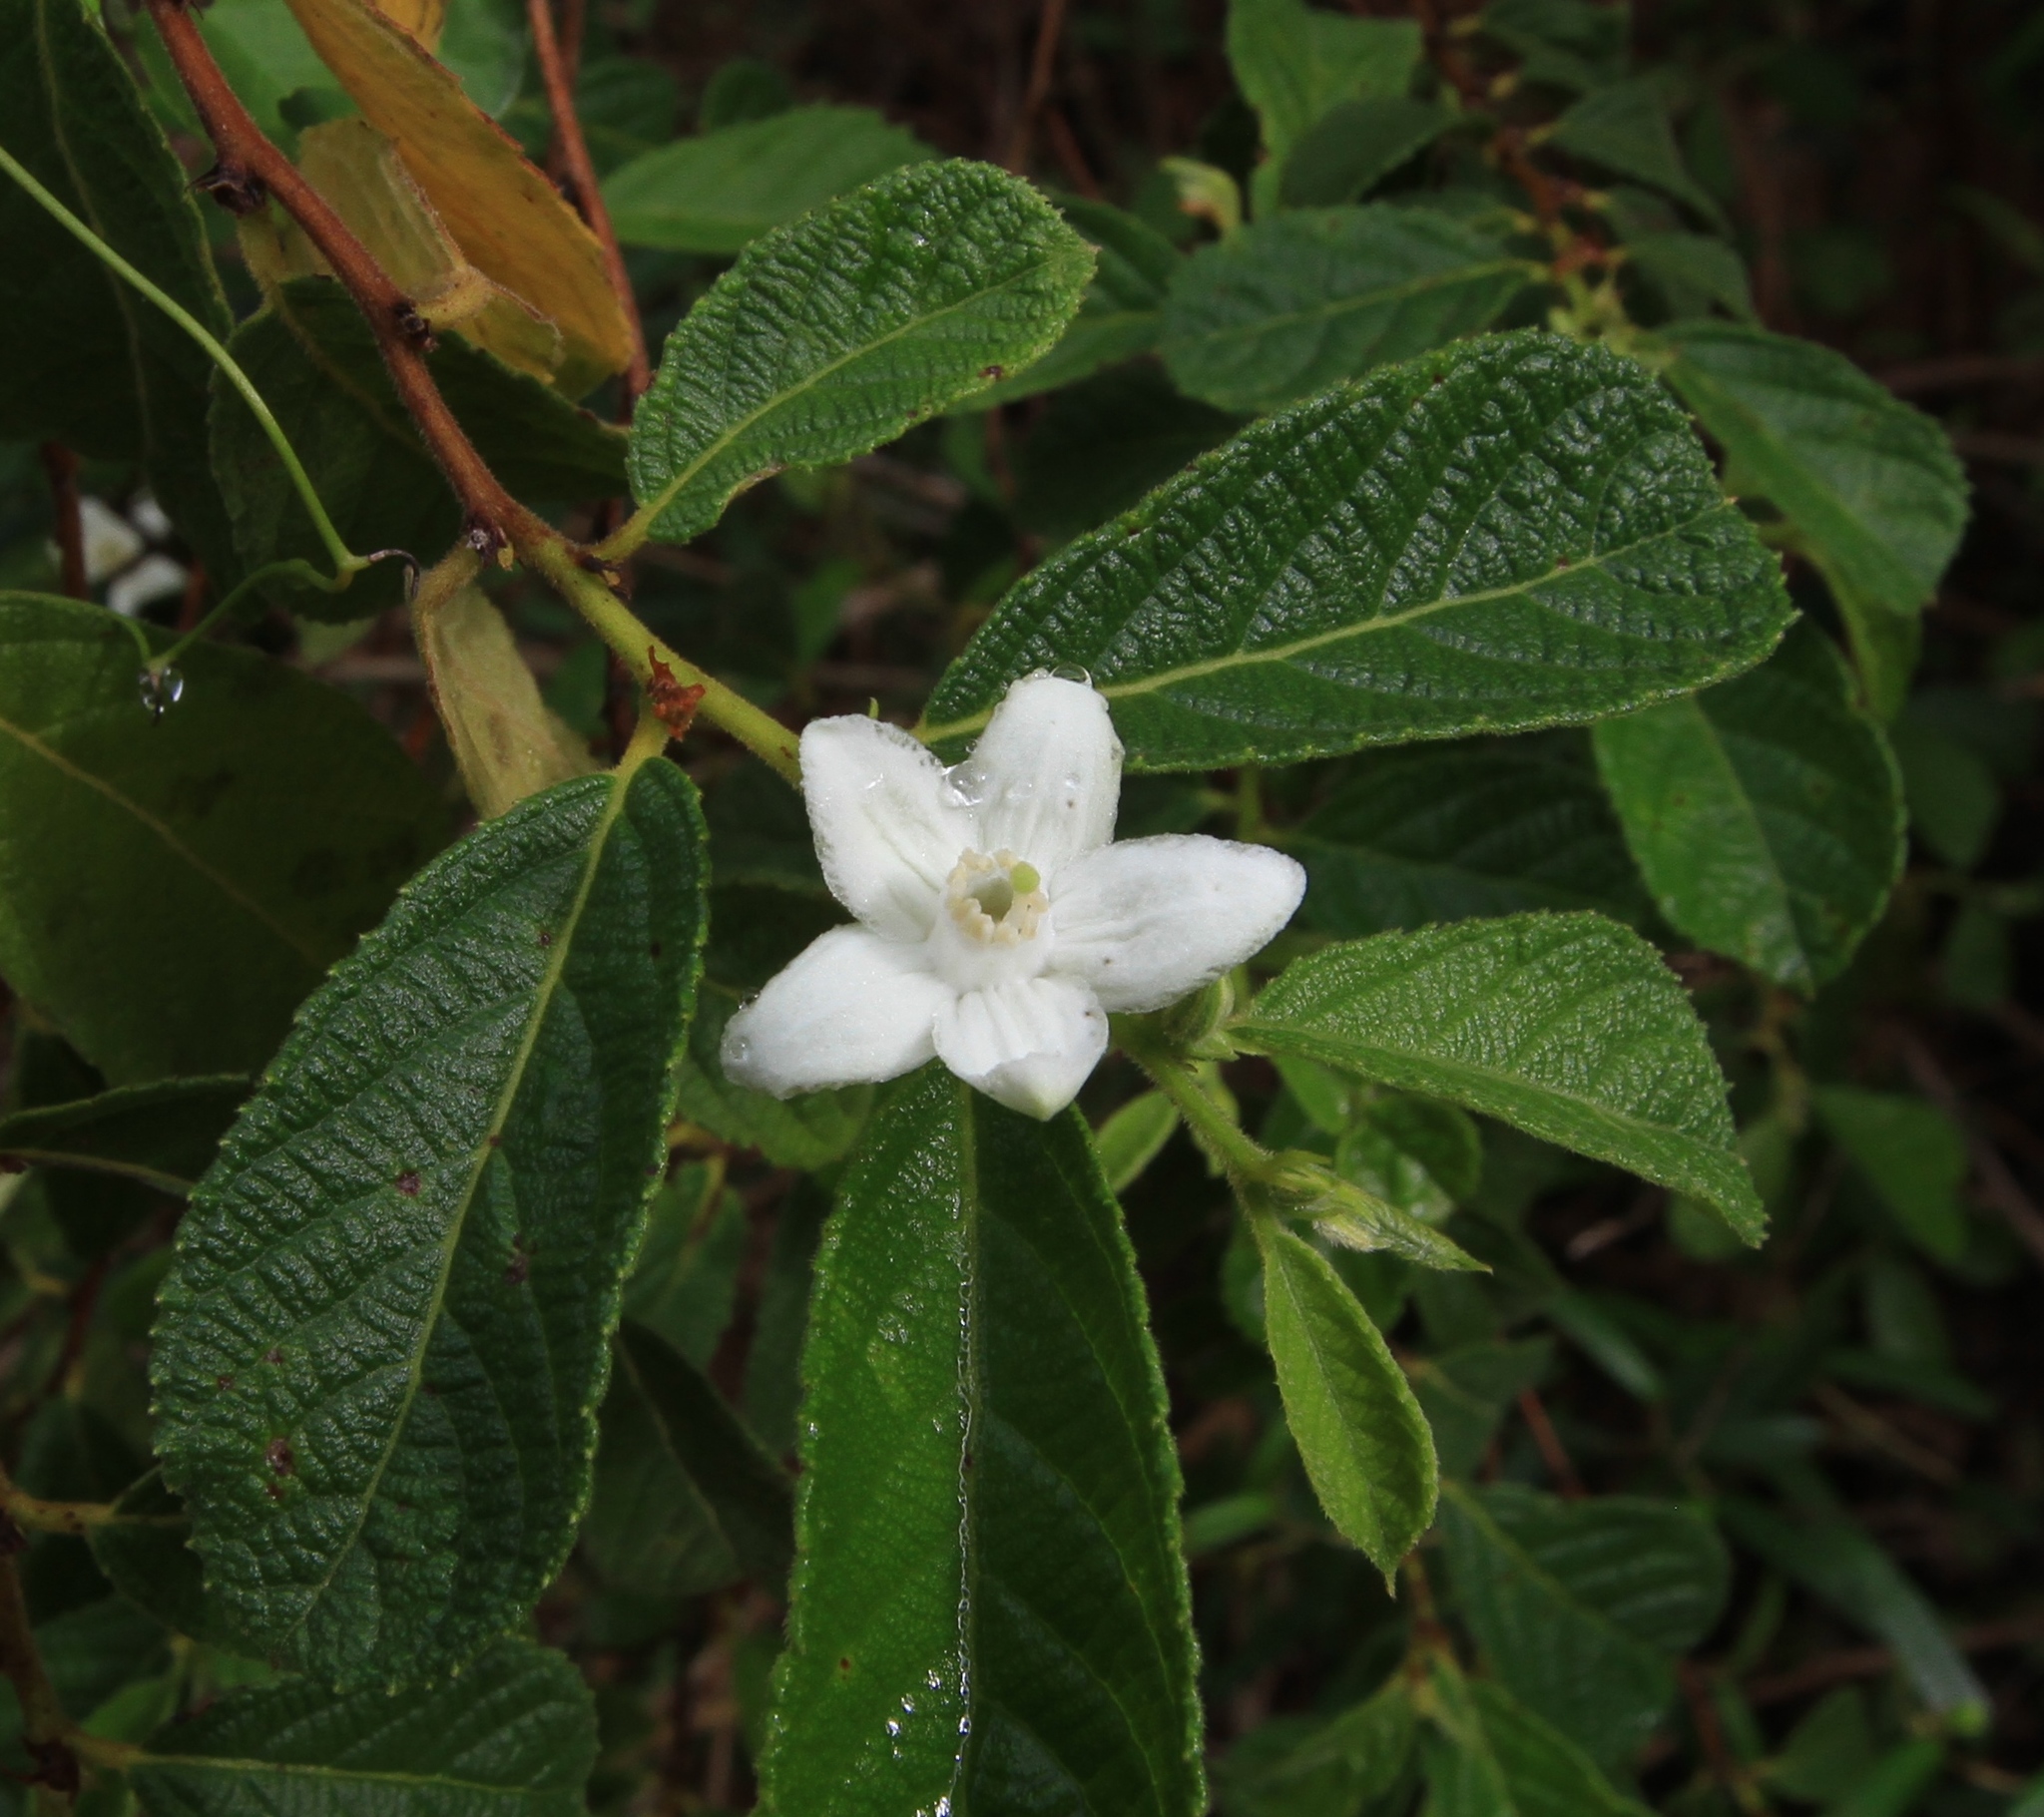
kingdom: Plantae
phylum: Tracheophyta
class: Magnoliopsida
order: Malpighiales
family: Salicaceae
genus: Casearia
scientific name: Casearia dodecandra
